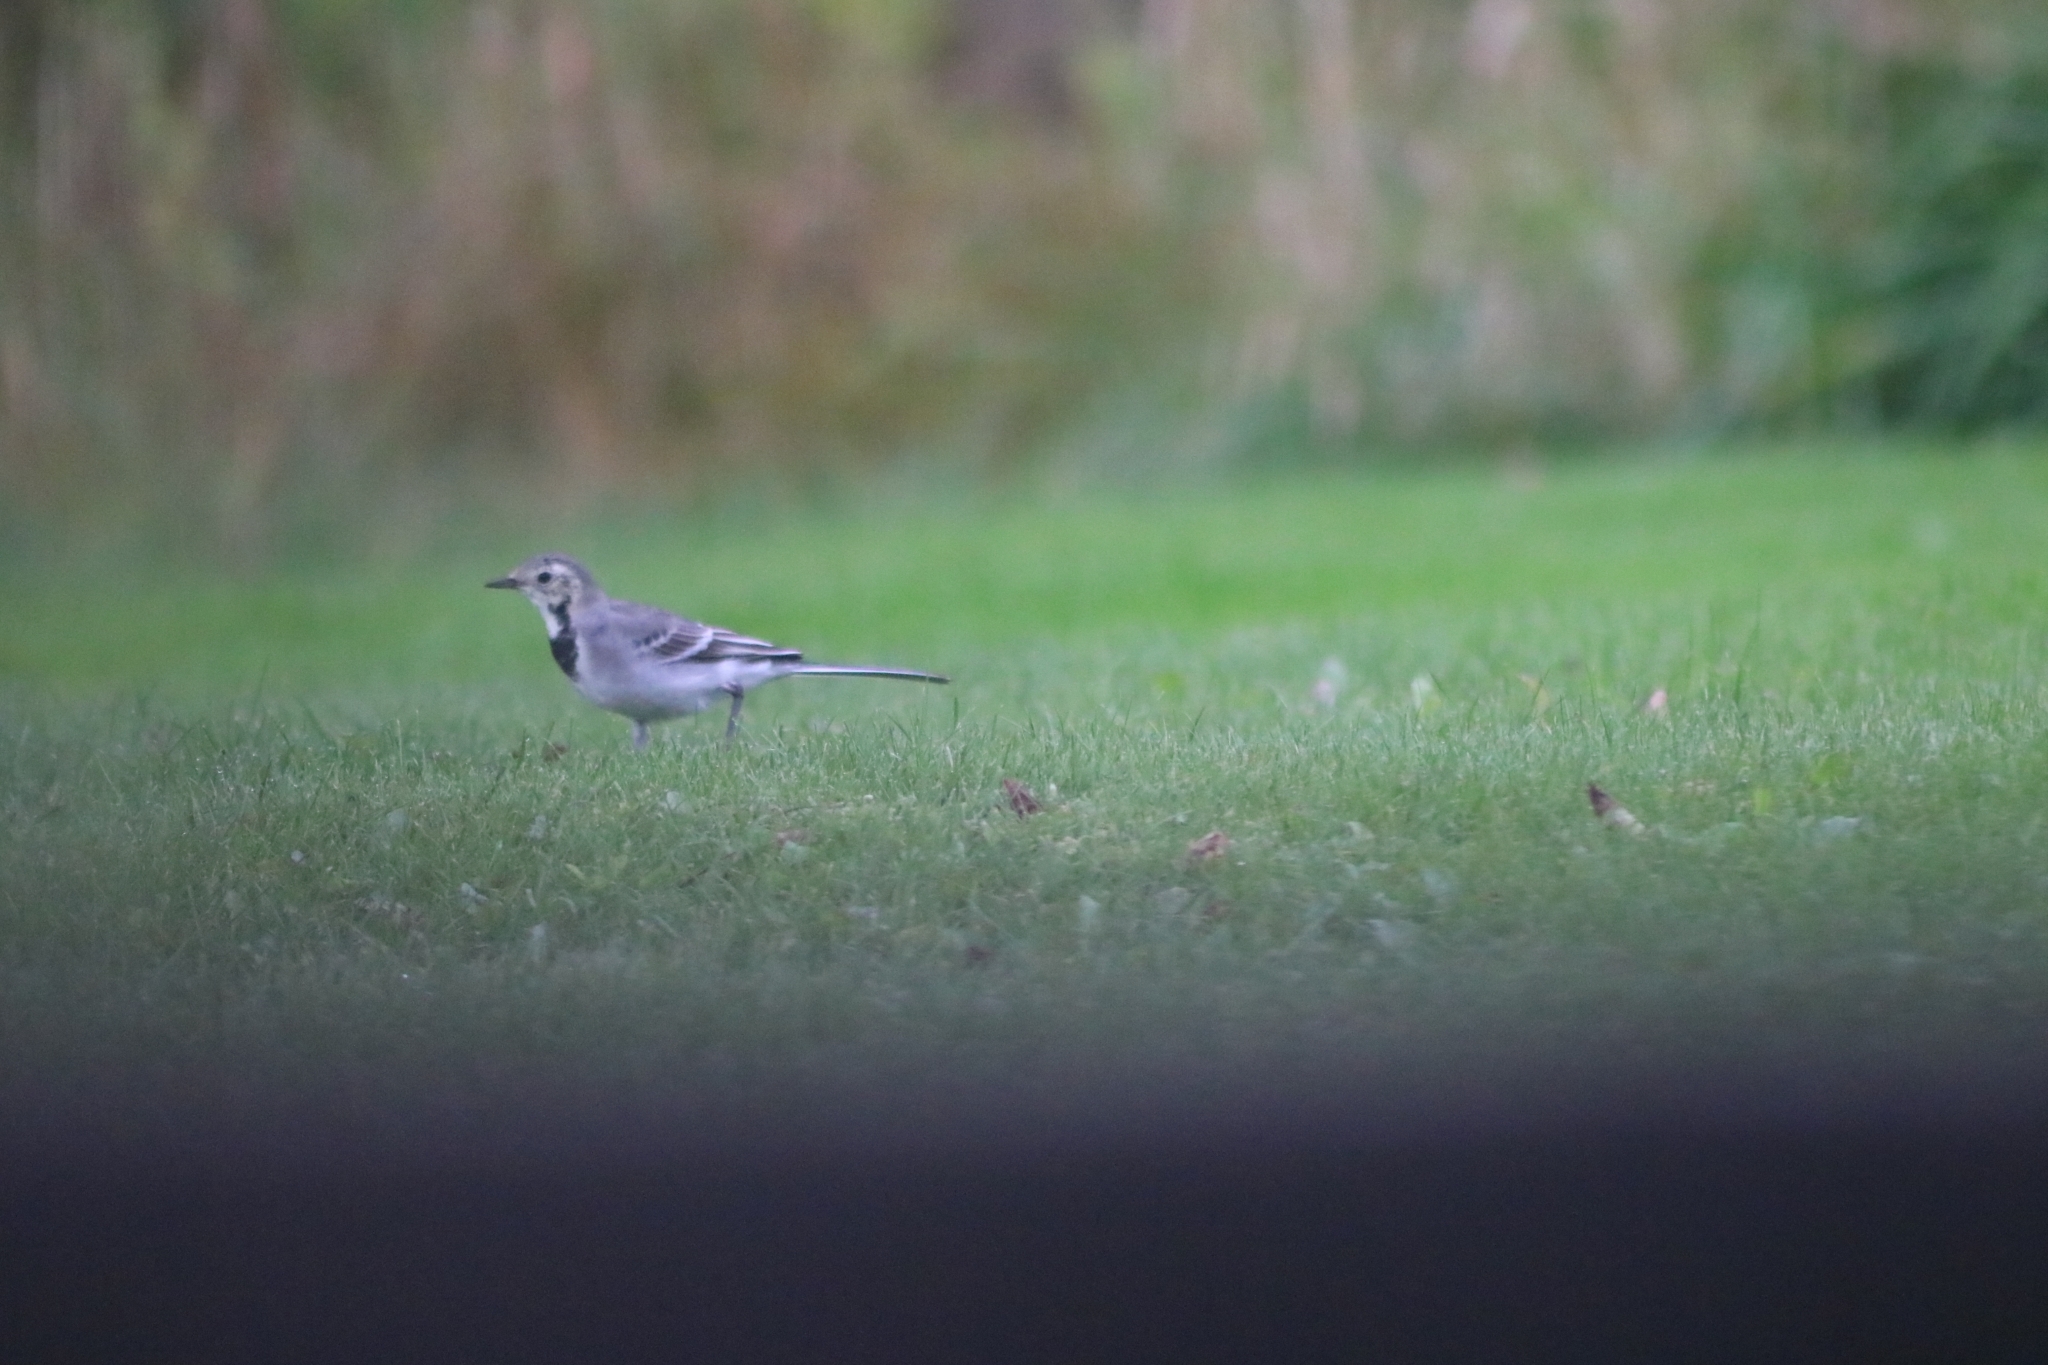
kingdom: Animalia
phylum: Chordata
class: Aves
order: Passeriformes
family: Motacillidae
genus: Motacilla
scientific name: Motacilla alba
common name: White wagtail
